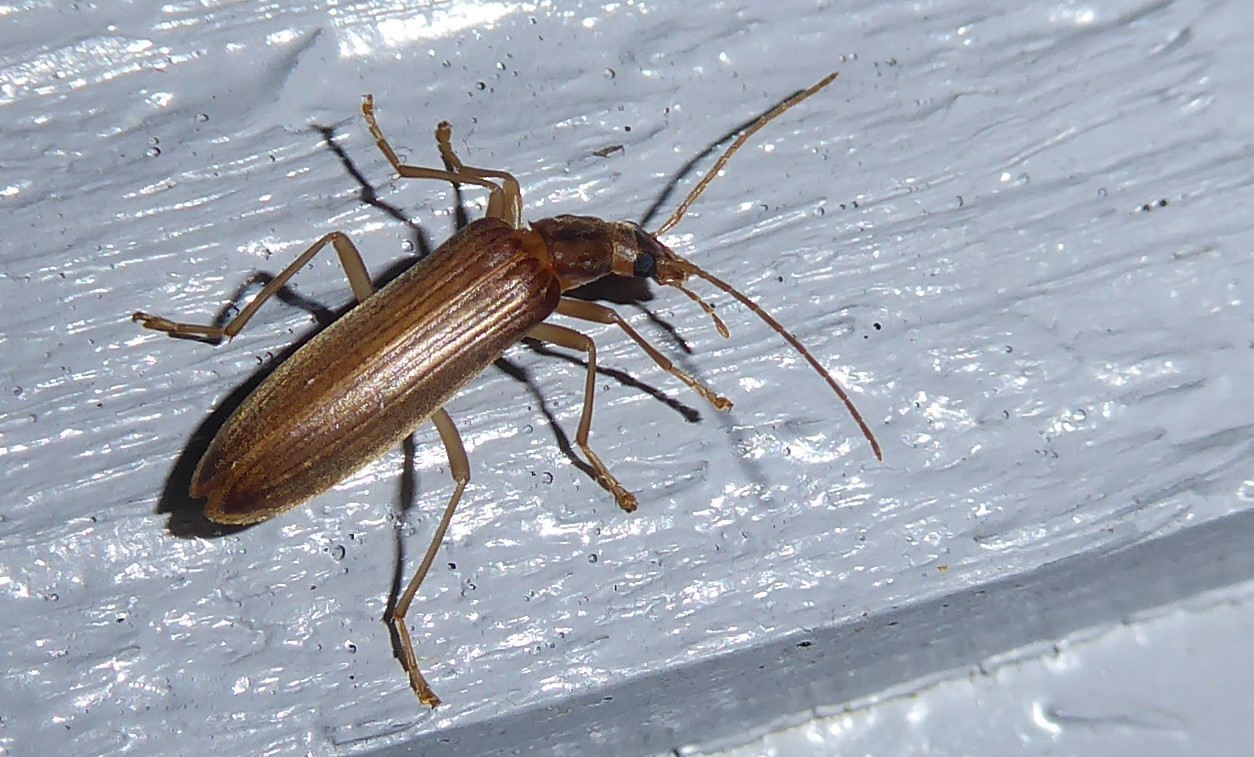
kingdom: Animalia
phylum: Arthropoda
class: Insecta
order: Coleoptera
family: Oedemeridae
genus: Thelyphassa
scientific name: Thelyphassa
